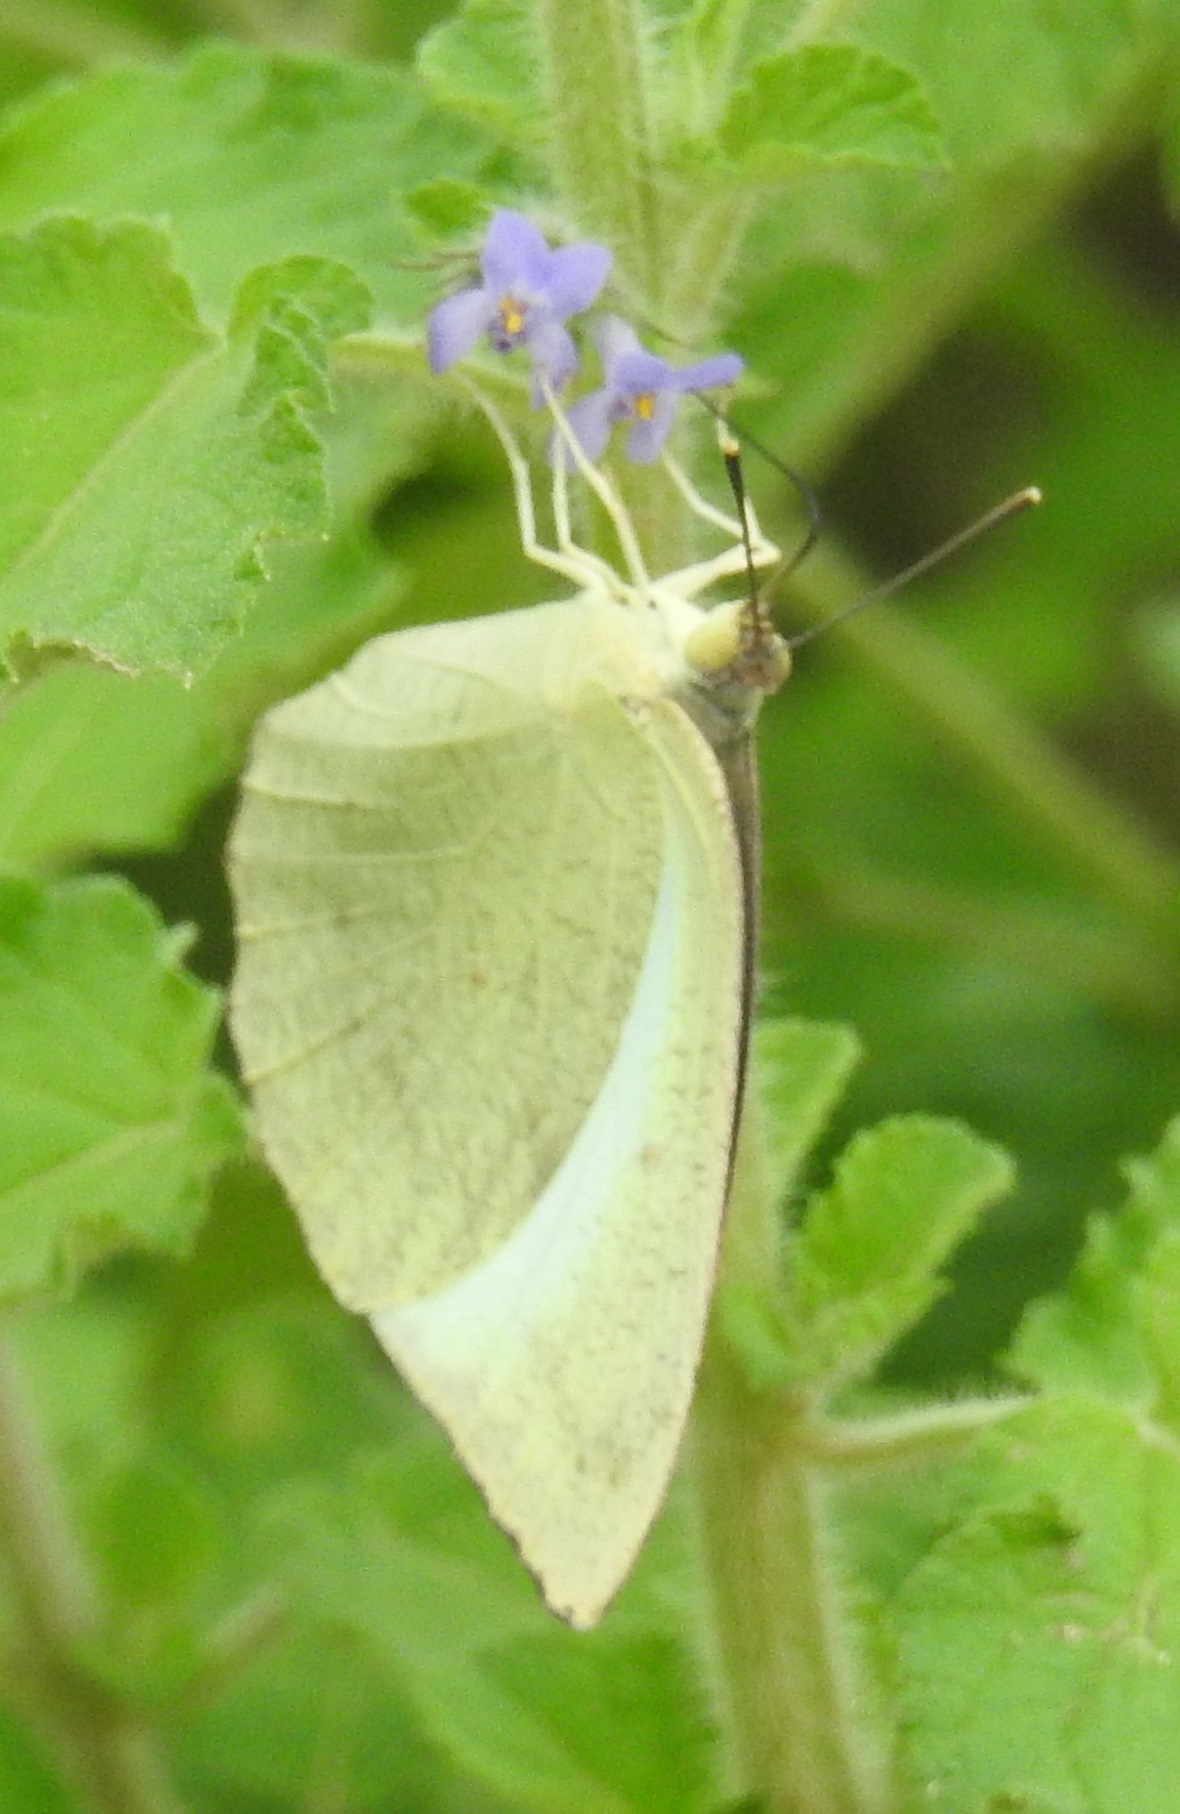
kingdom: Animalia
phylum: Arthropoda
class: Insecta
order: Lepidoptera
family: Pieridae
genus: Catopsilia
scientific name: Catopsilia pyranthe
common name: Mottled emigrant
